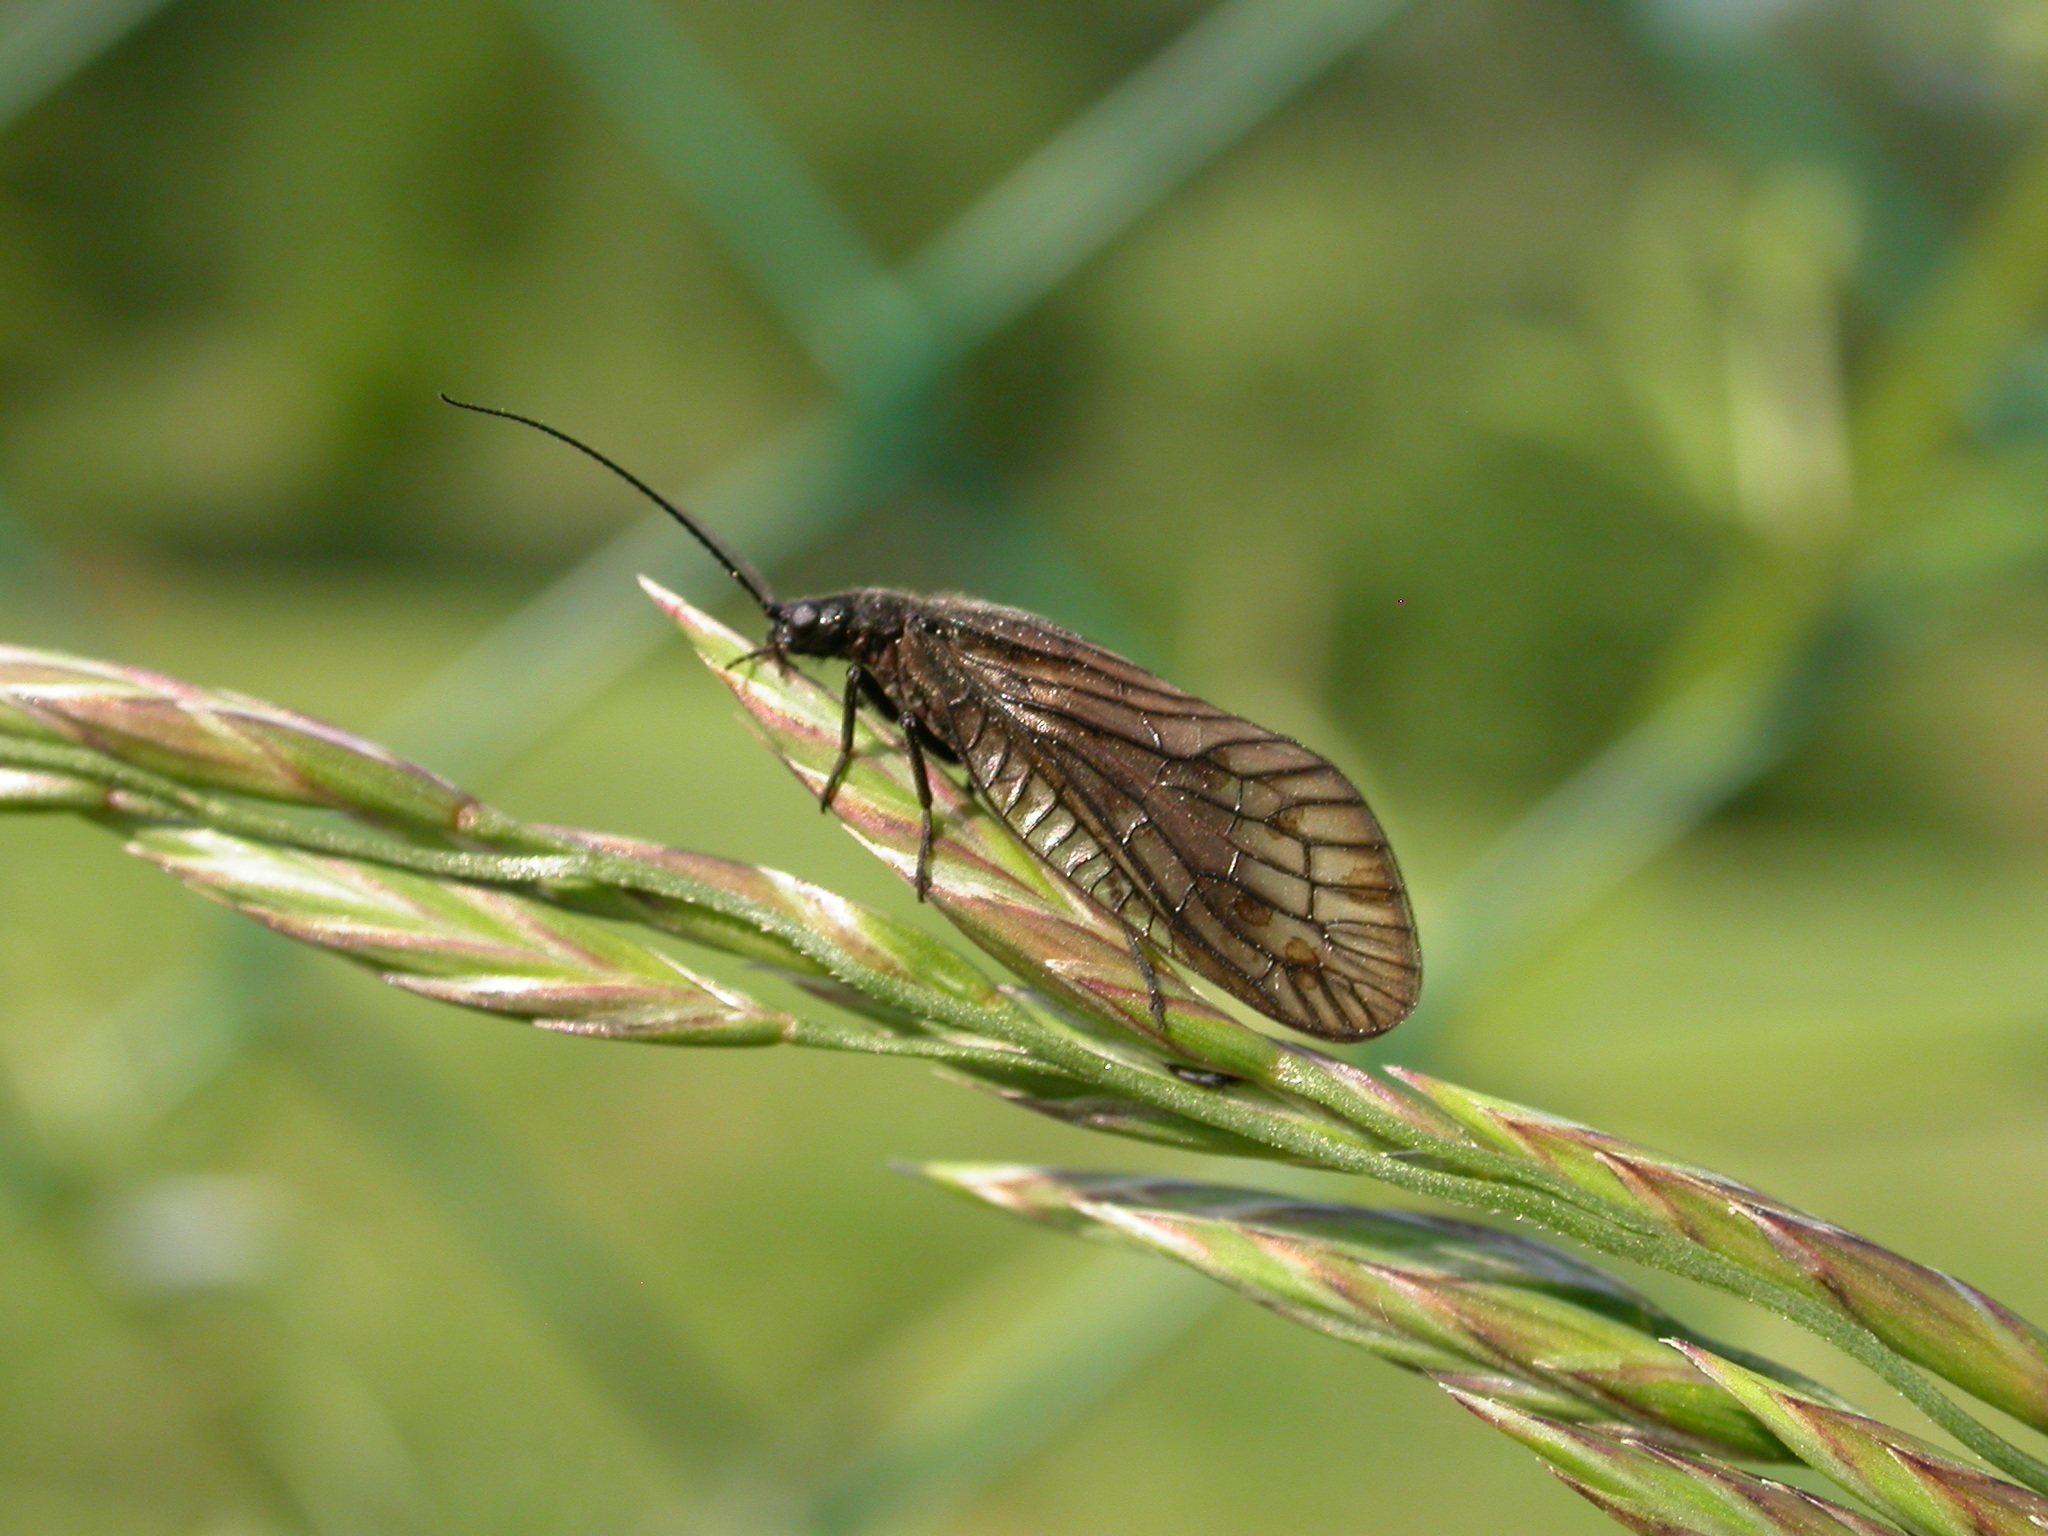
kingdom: Animalia
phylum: Arthropoda
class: Insecta
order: Megaloptera
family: Sialidae
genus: Sialis
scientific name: Sialis
